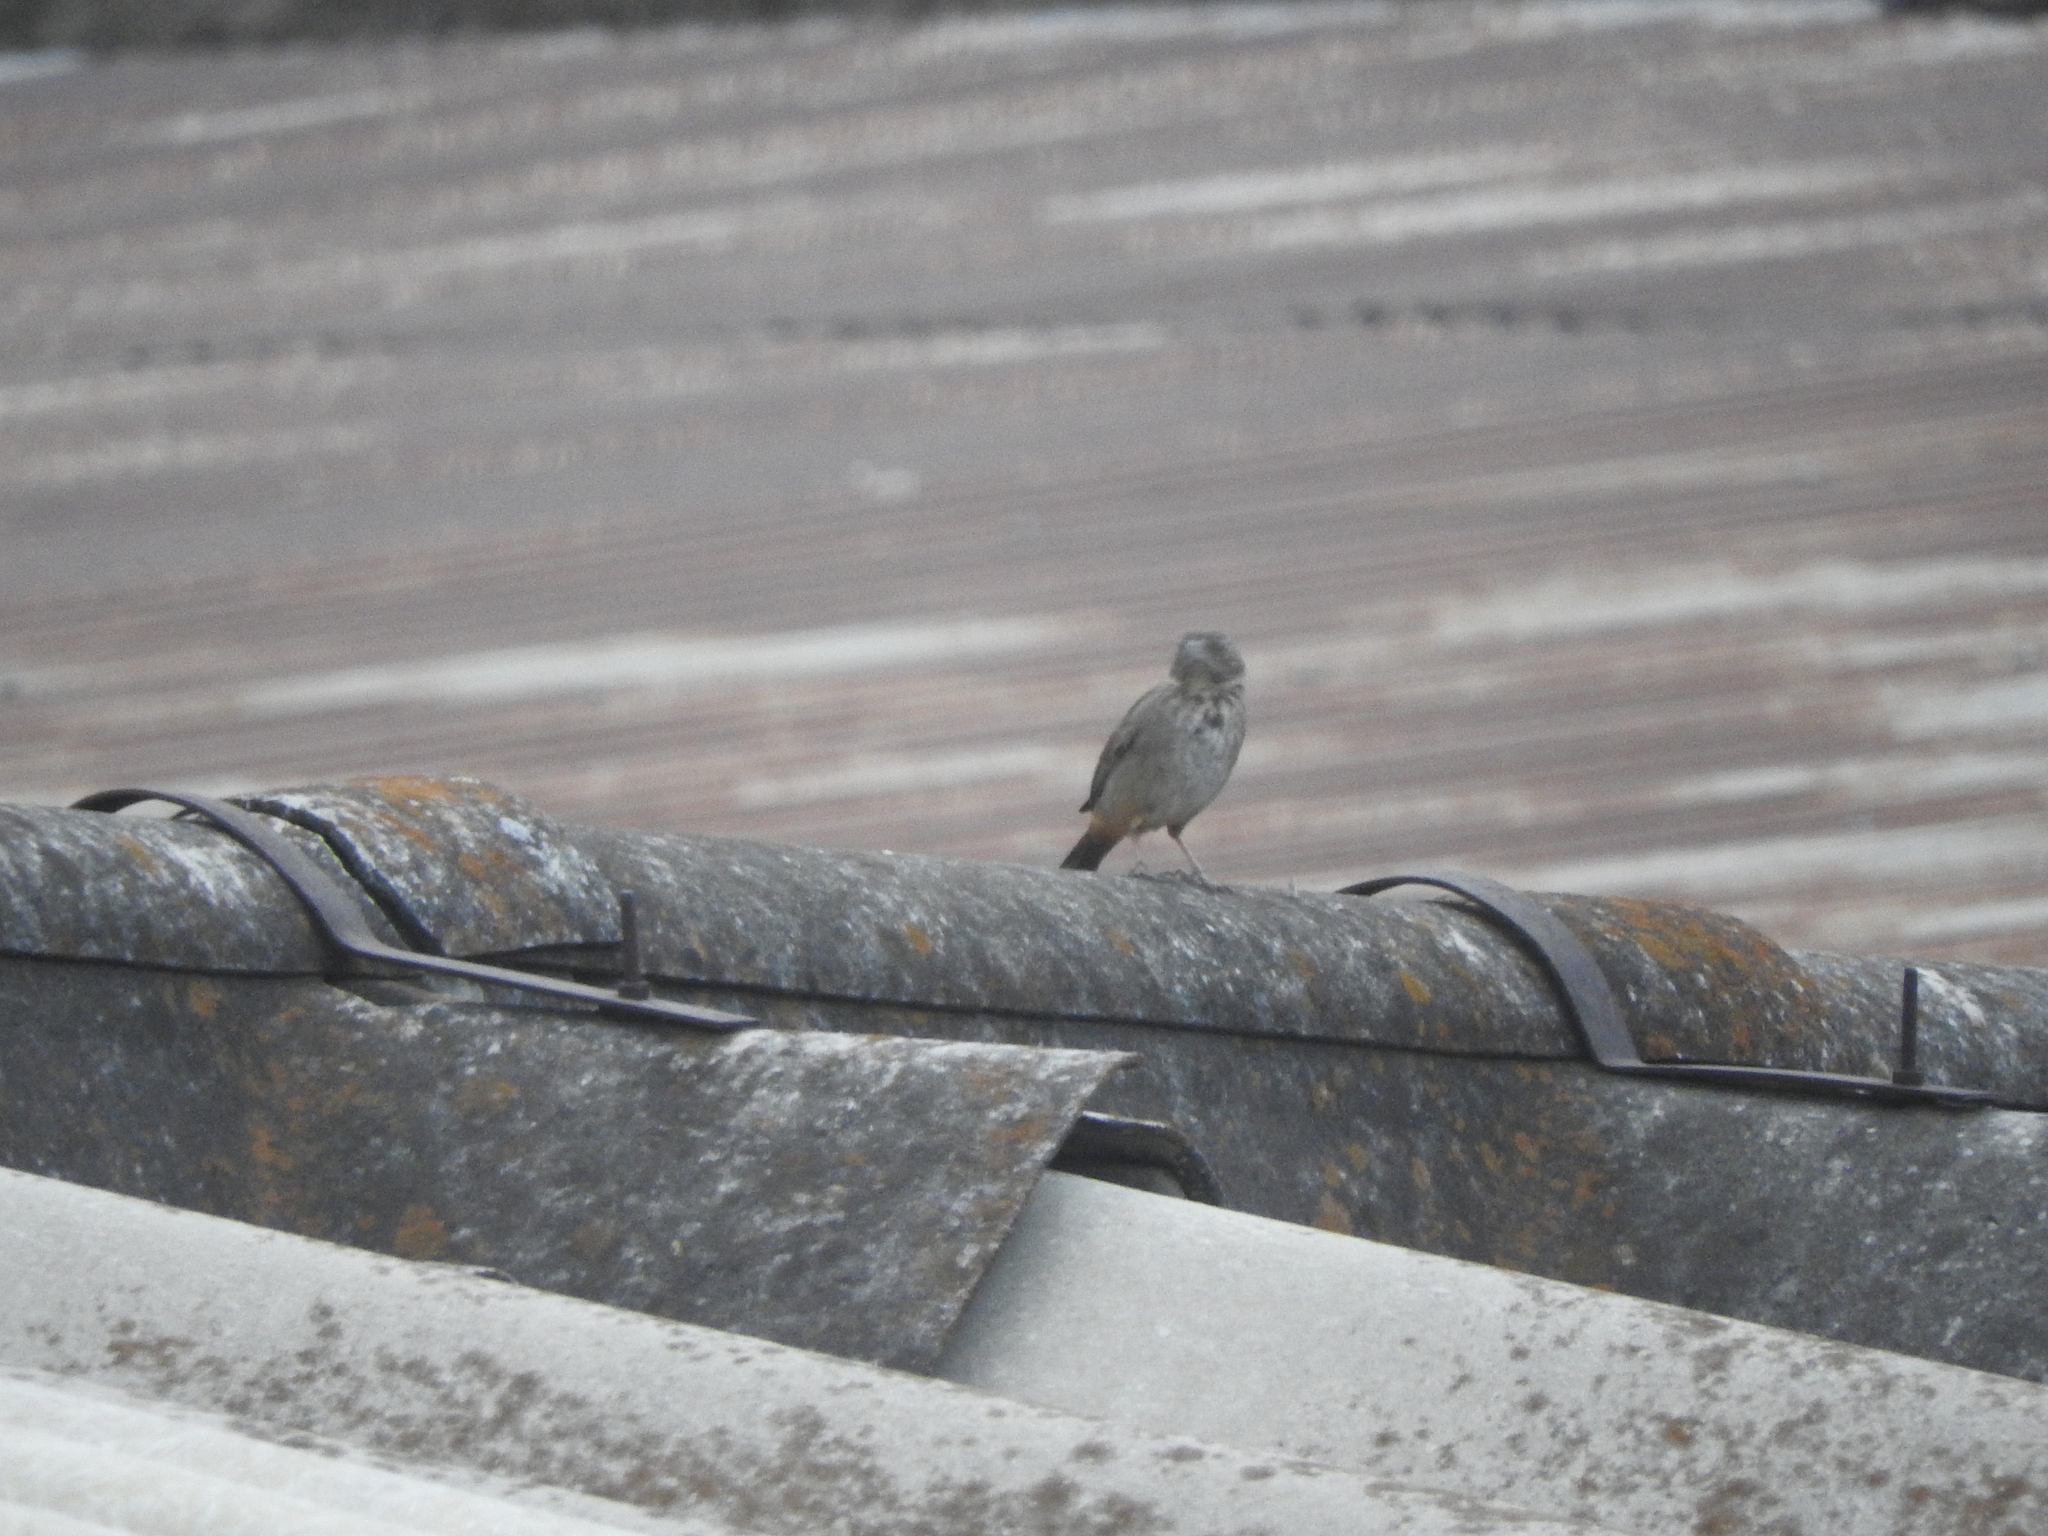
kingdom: Animalia
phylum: Chordata
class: Aves
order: Passeriformes
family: Passerellidae
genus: Melozone
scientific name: Melozone fusca
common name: Canyon towhee
